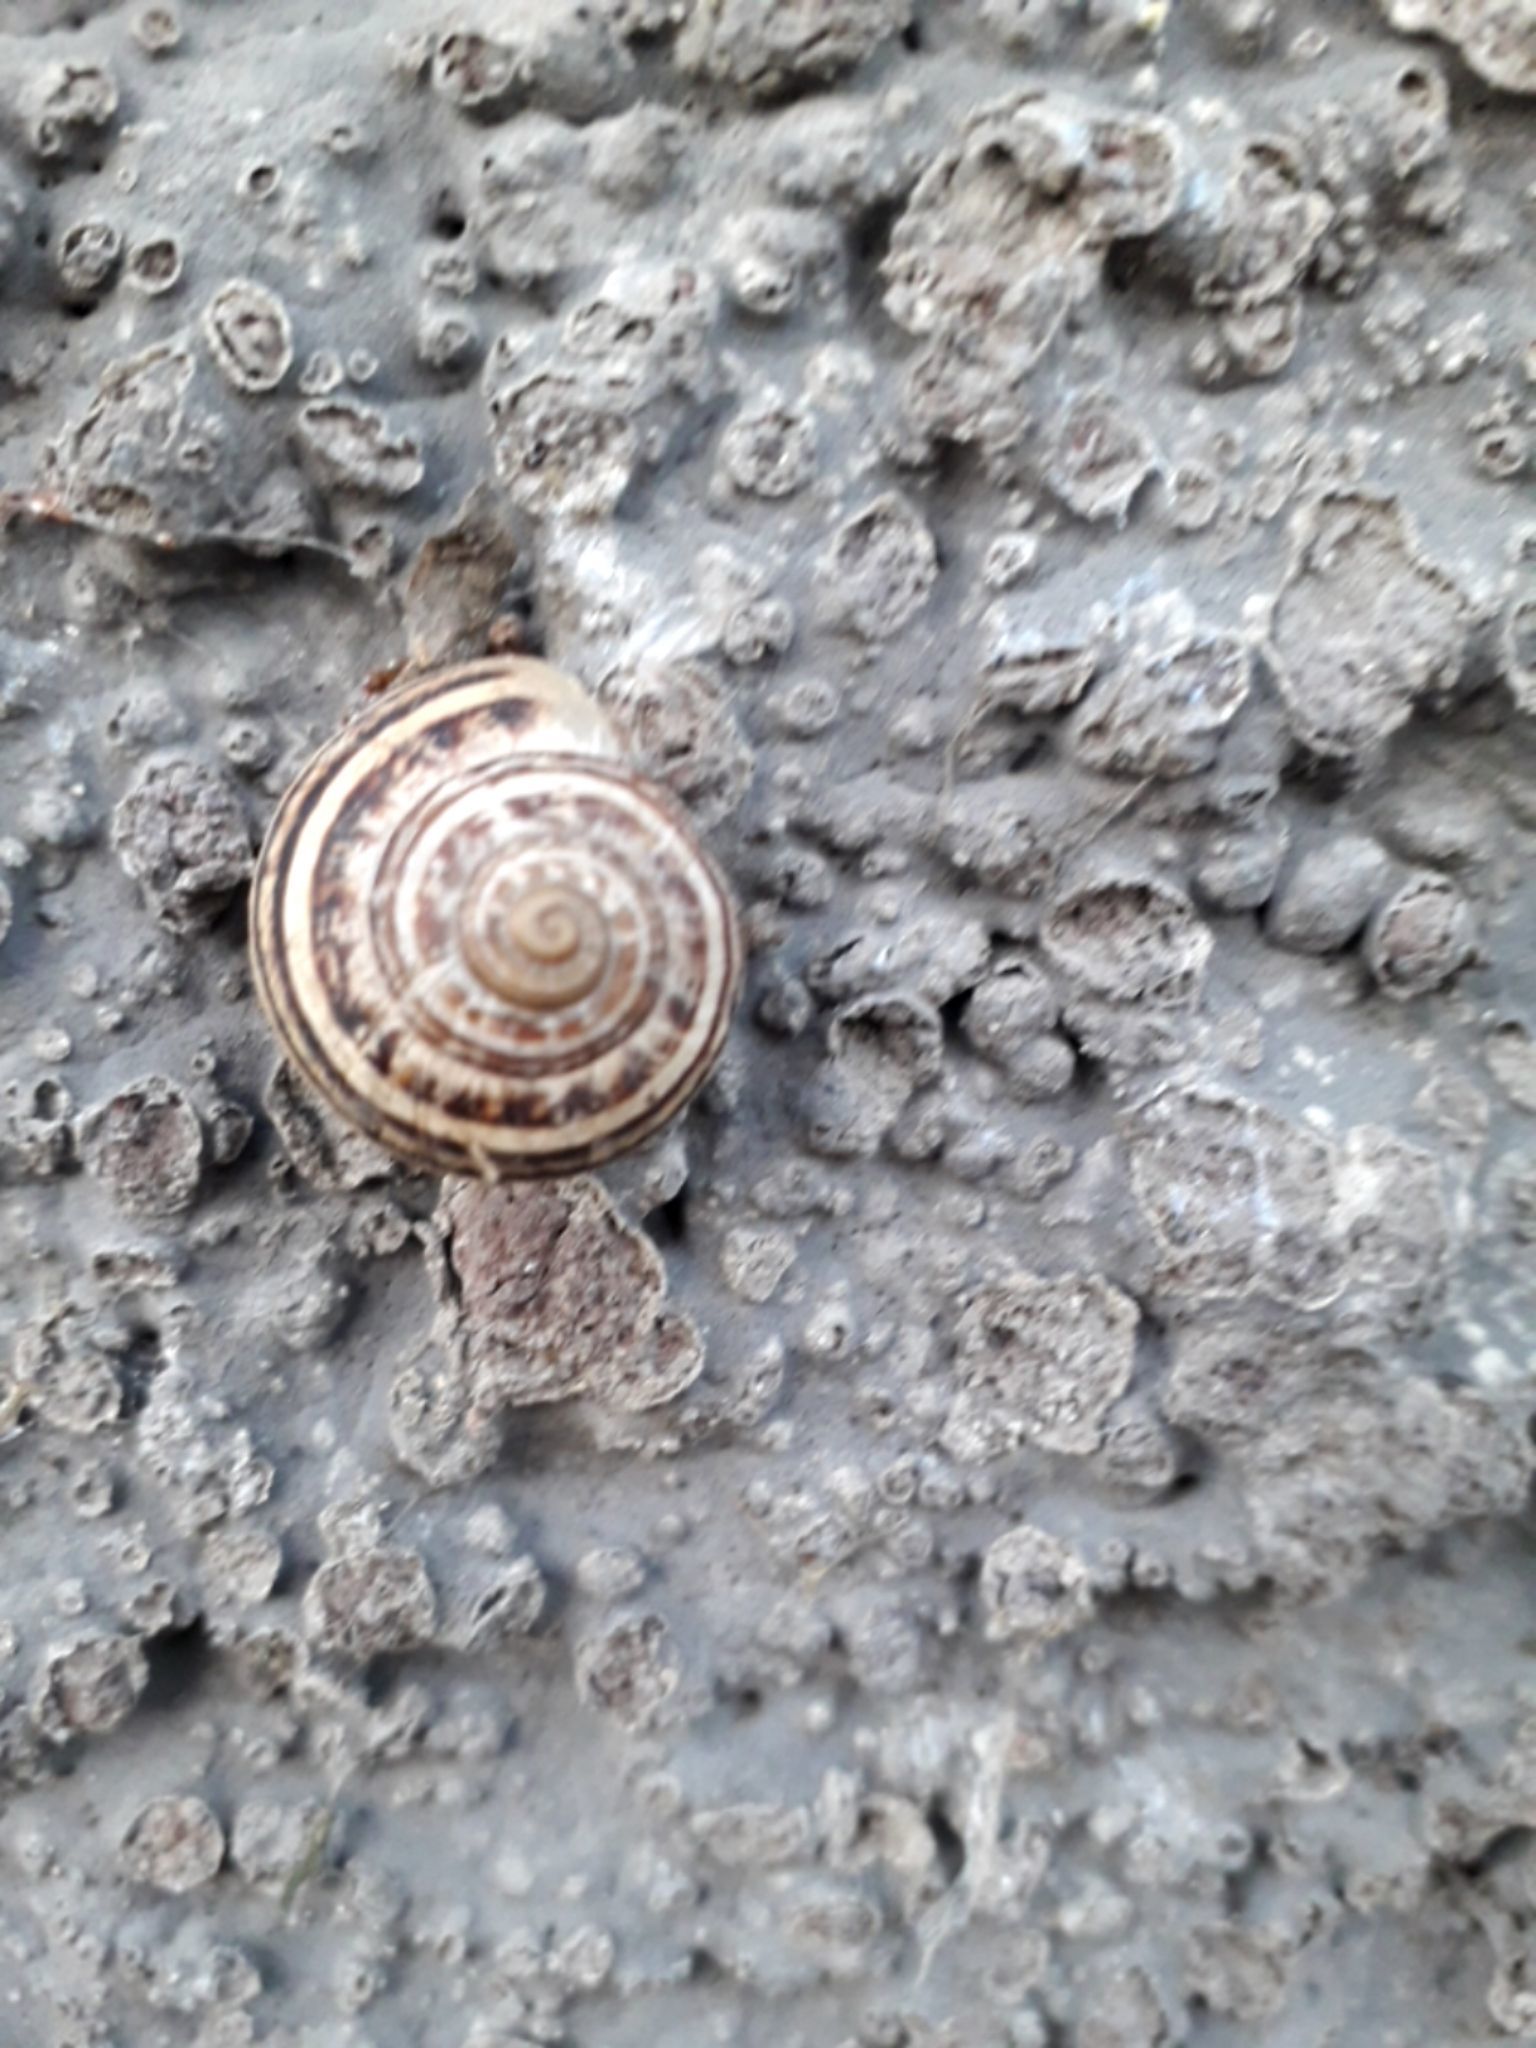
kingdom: Animalia
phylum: Mollusca
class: Gastropoda
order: Stylommatophora
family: Helicidae
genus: Eobania
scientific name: Eobania vermiculata
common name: Chocolateband snail
